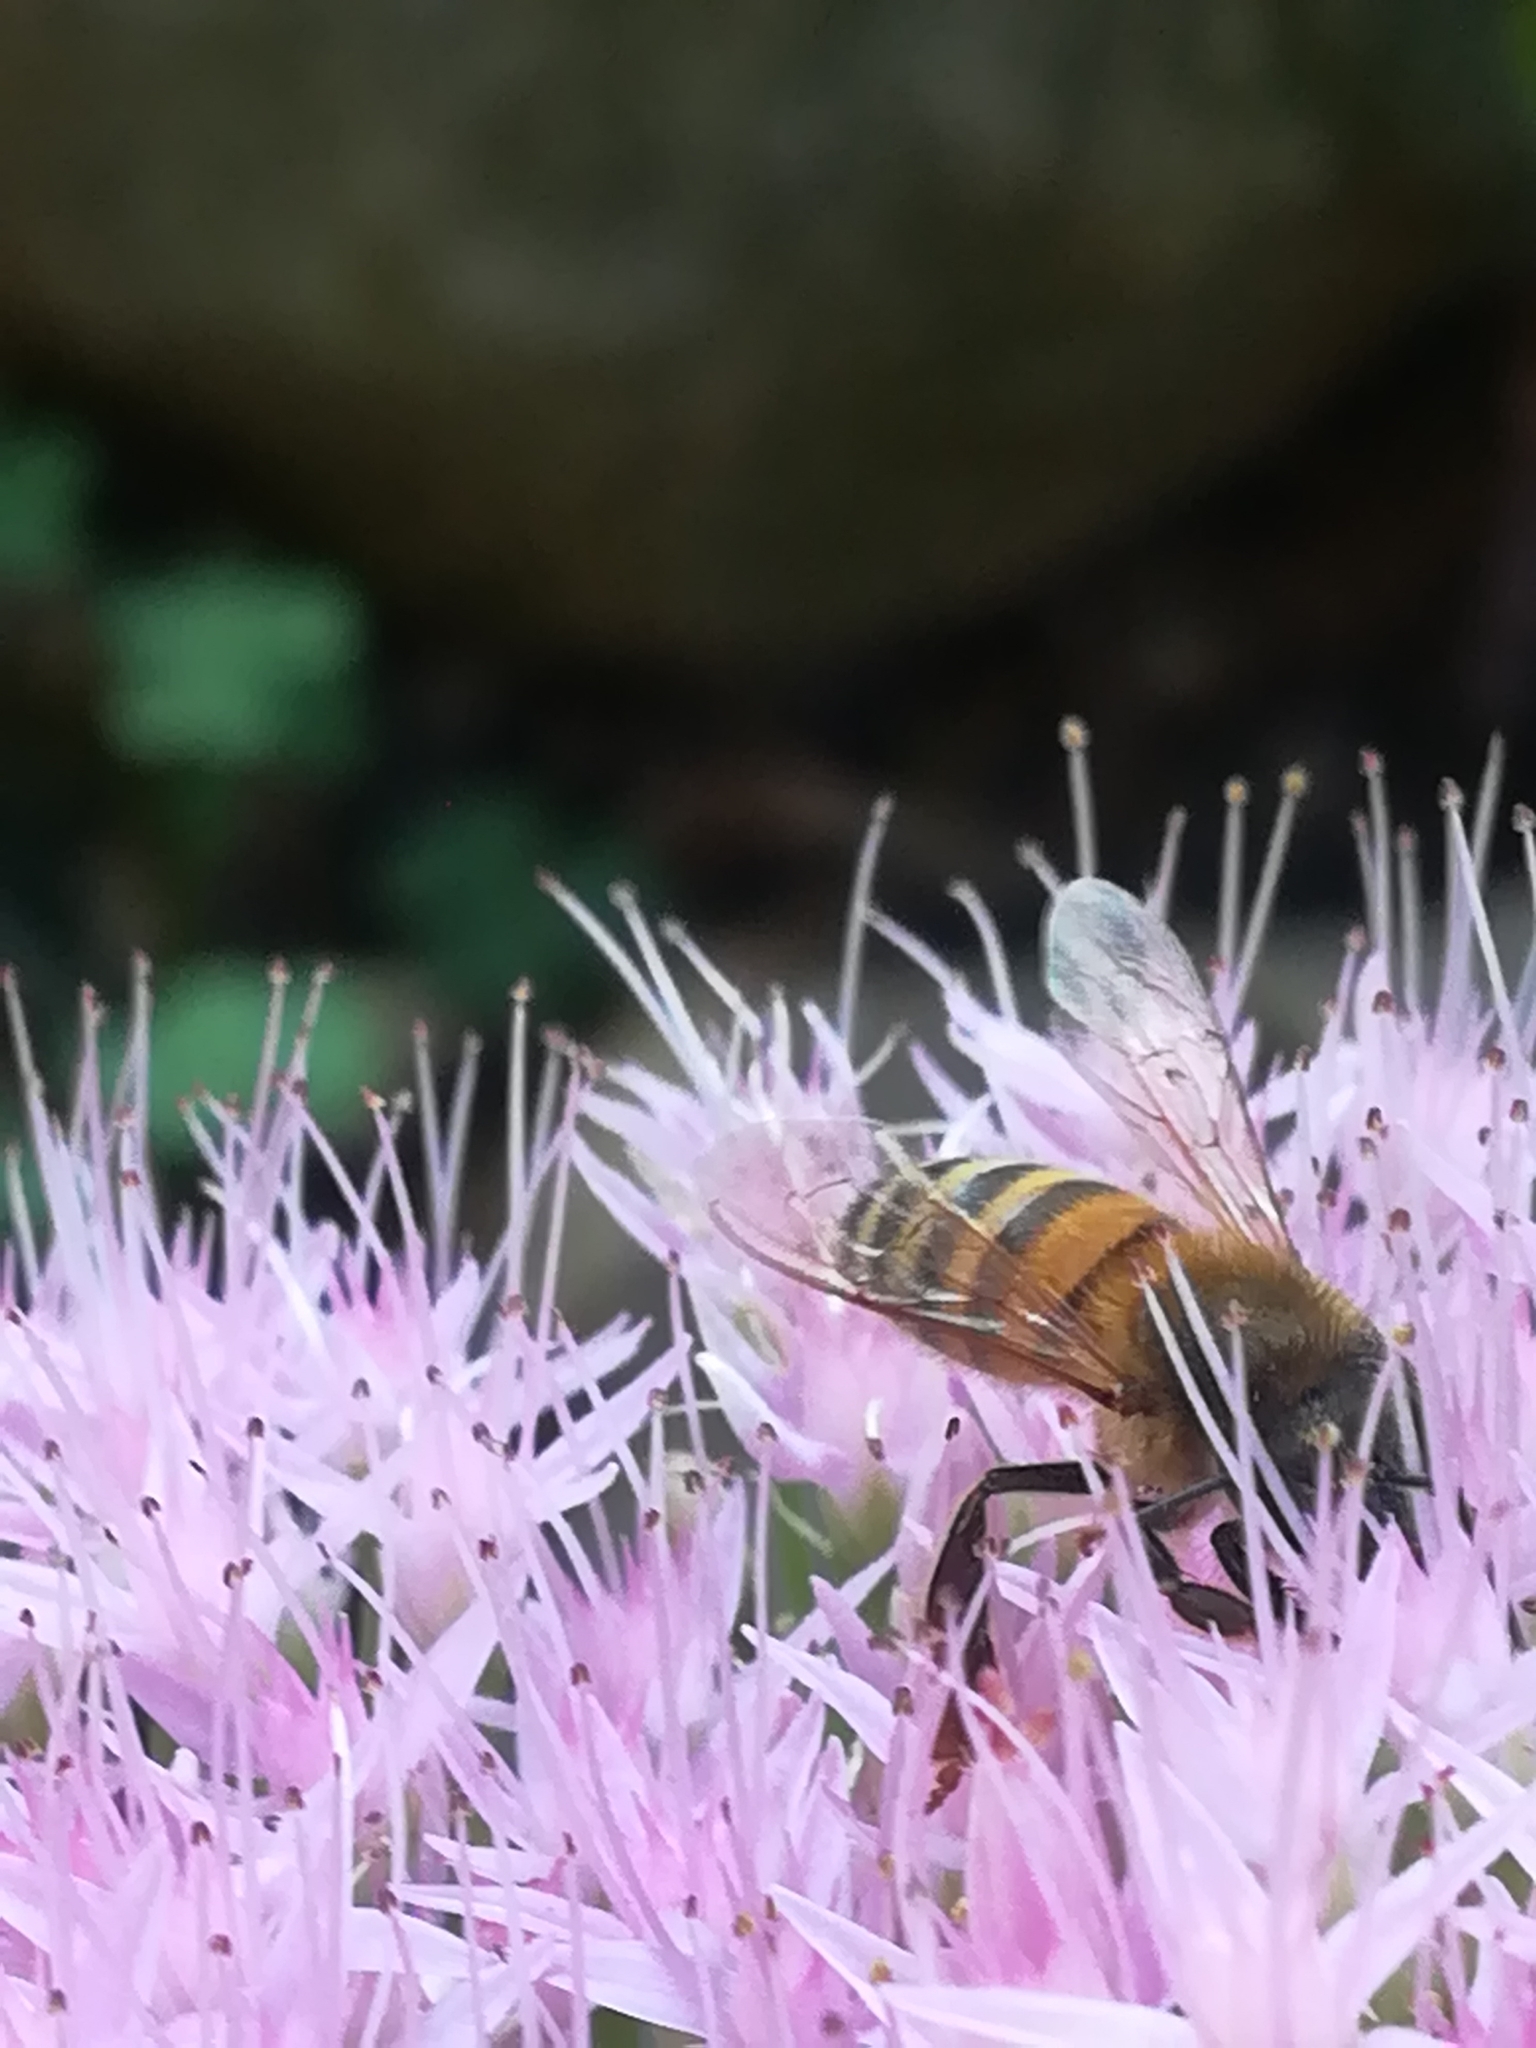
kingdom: Animalia
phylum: Arthropoda
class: Insecta
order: Hymenoptera
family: Apidae
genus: Apis
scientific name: Apis mellifera
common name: Honey bee
